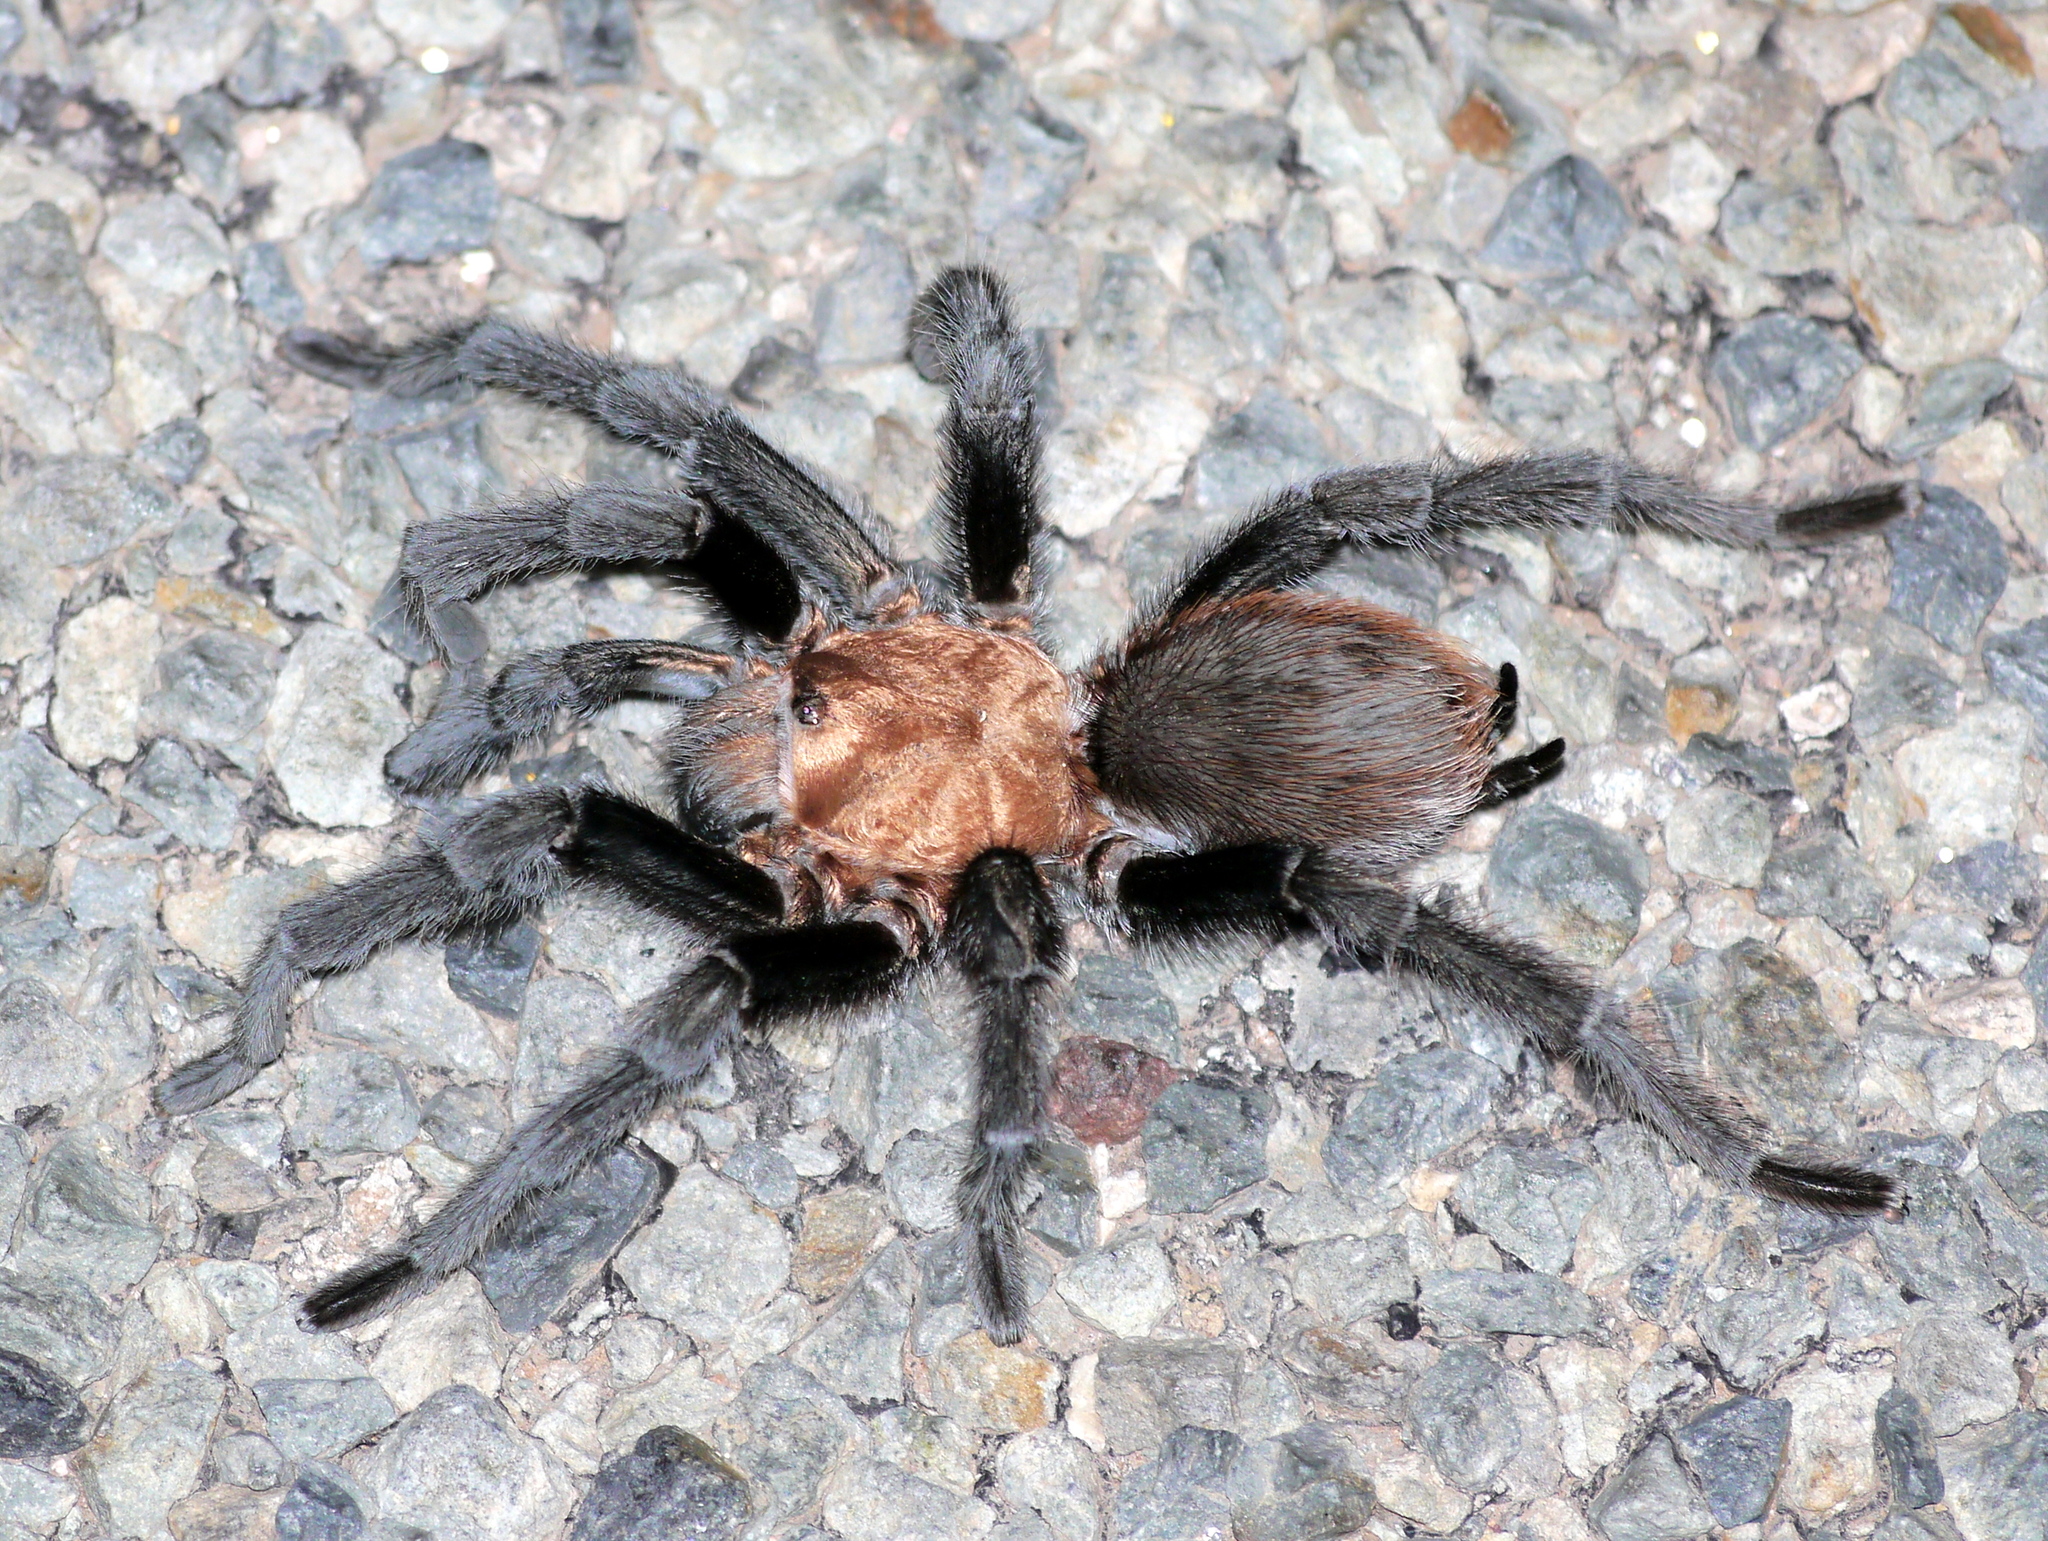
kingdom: Animalia
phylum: Arthropoda
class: Arachnida
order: Araneae
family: Theraphosidae
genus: Aphonopelma
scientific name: Aphonopelma hentzi
